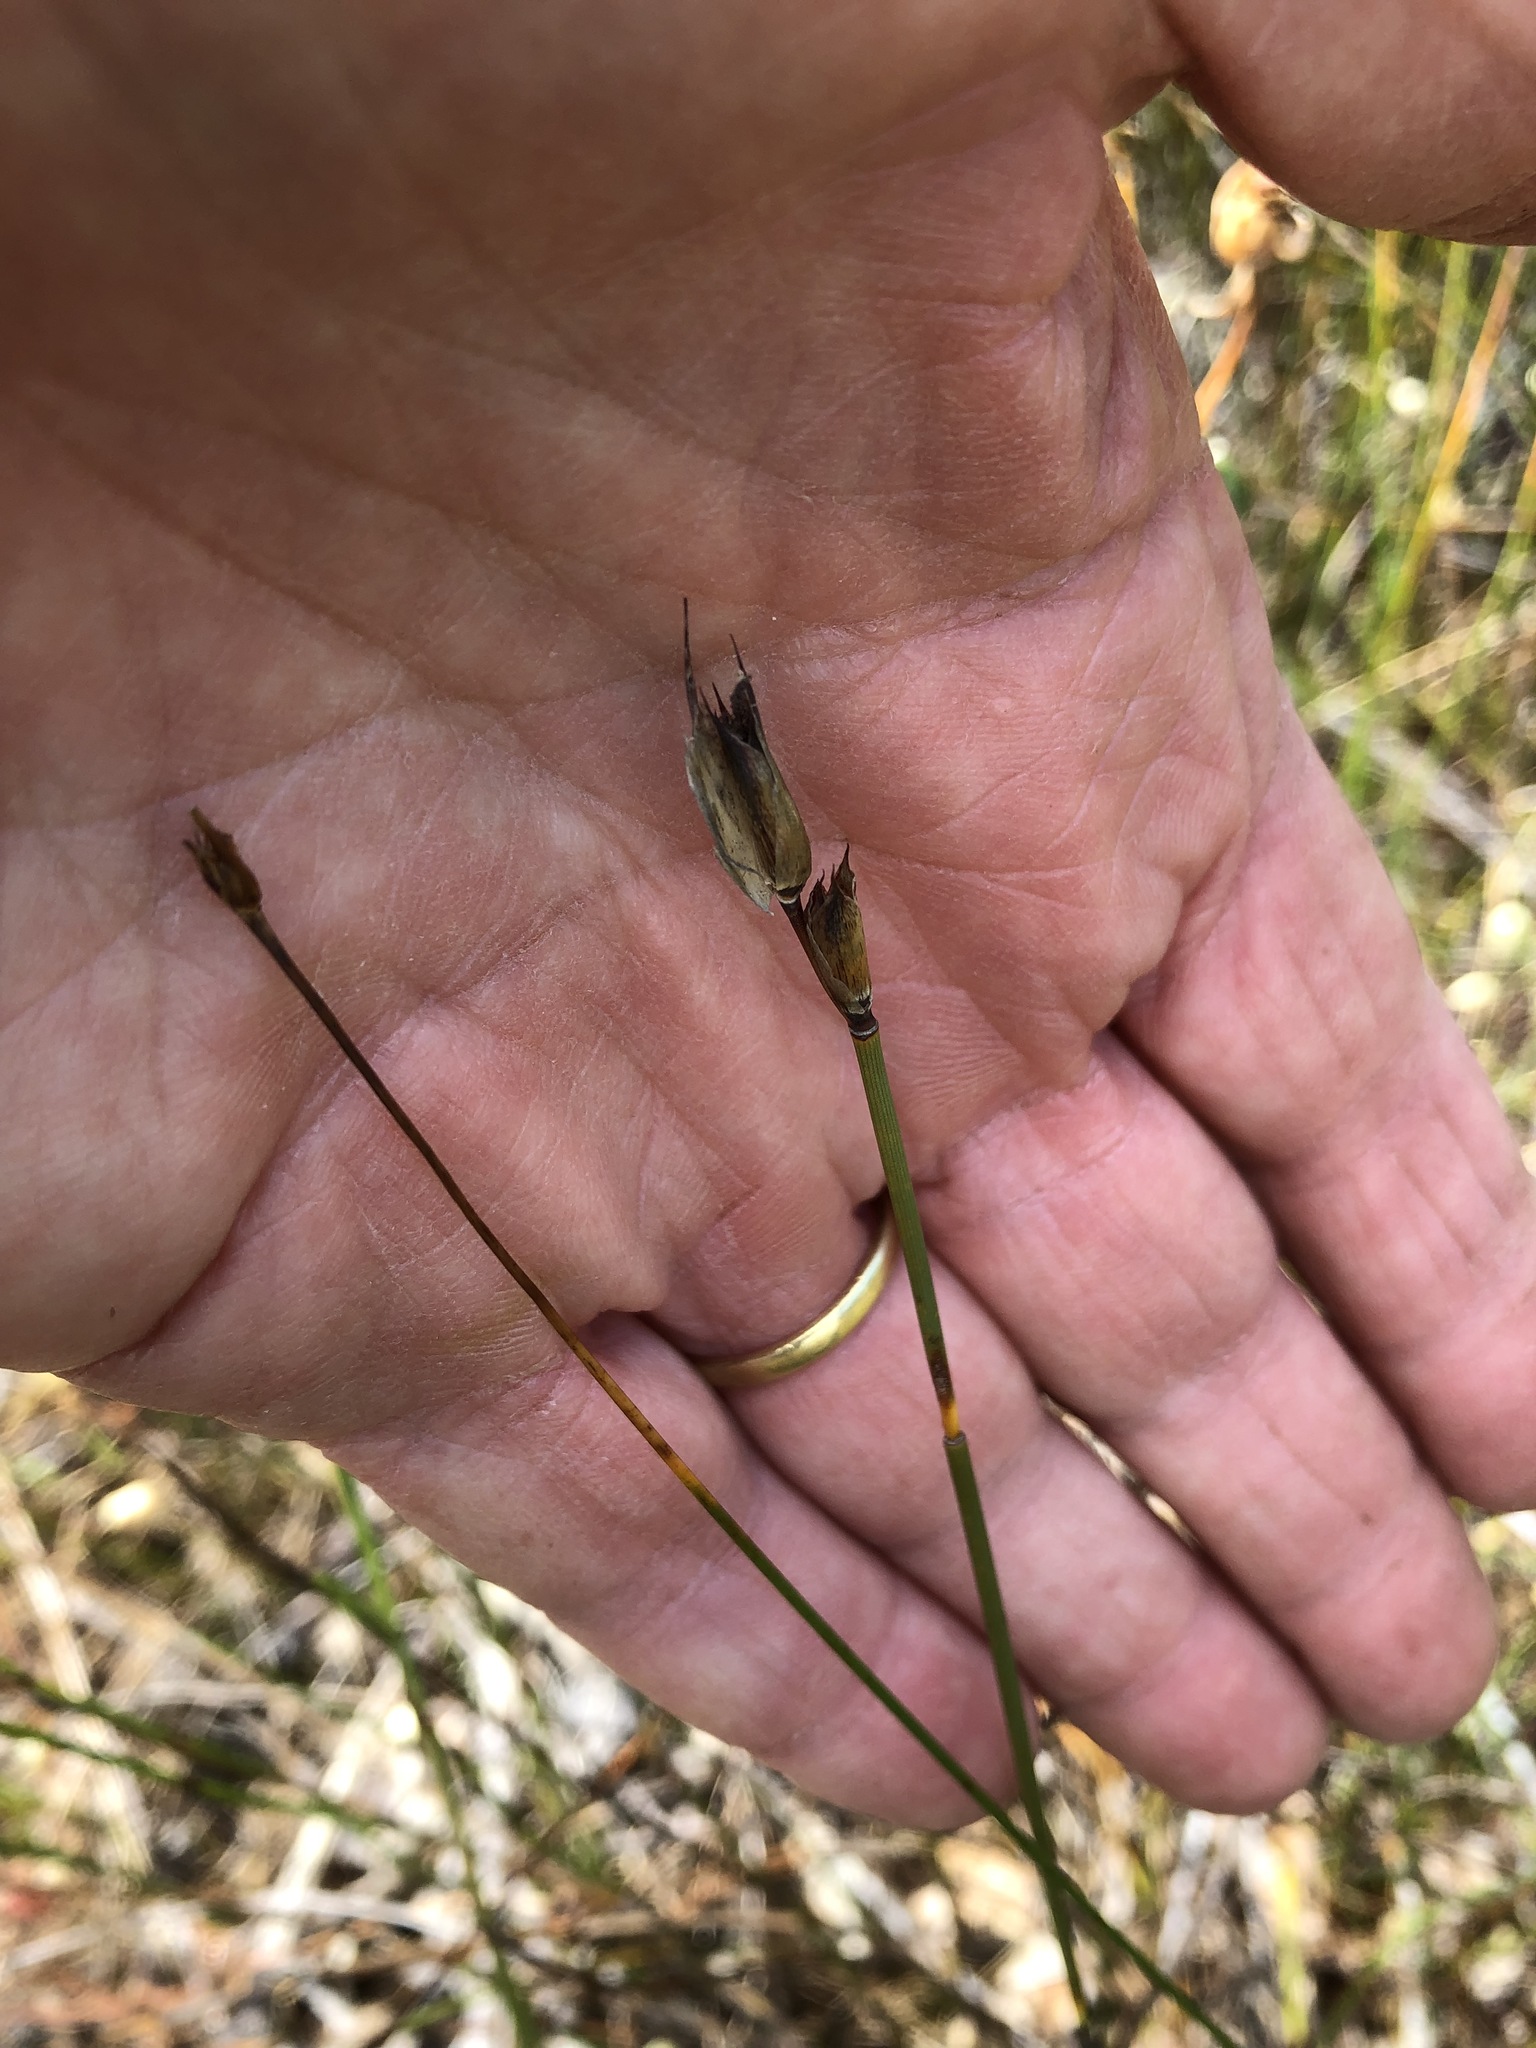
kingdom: Plantae
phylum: Tracheophyta
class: Liliopsida
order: Poales
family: Restionaceae
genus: Willdenowia
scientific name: Willdenowia sulcata
